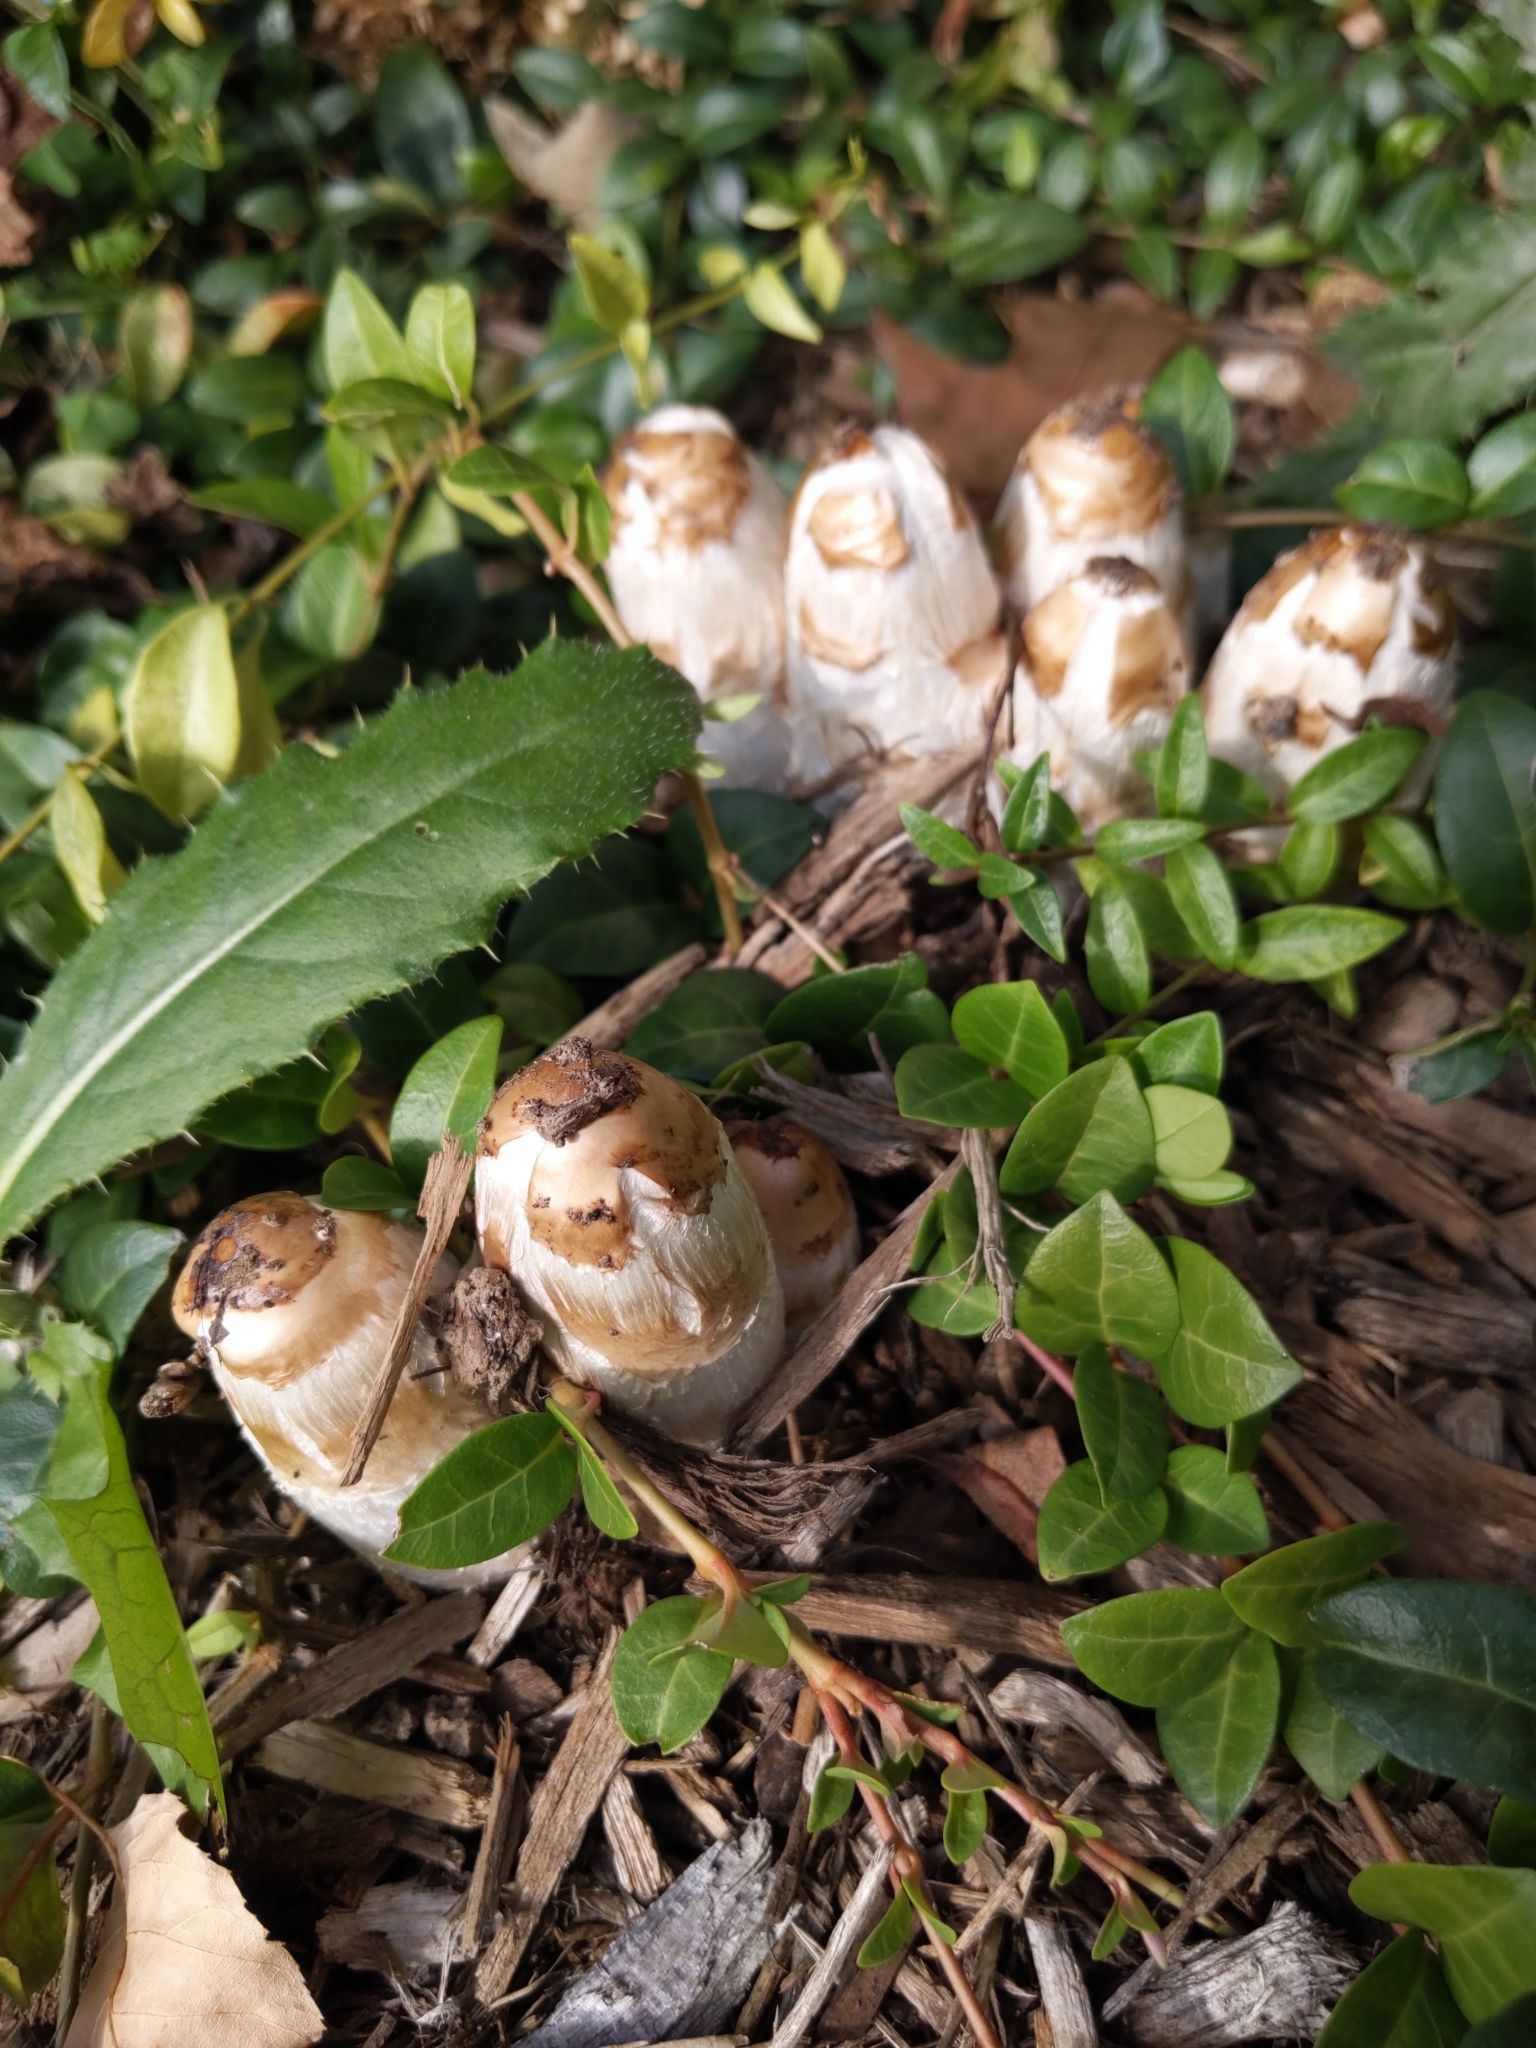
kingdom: Fungi
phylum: Basidiomycota
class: Agaricomycetes
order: Agaricales
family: Agaricaceae
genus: Coprinus
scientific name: Coprinus comatus
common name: Lawyer's wig
